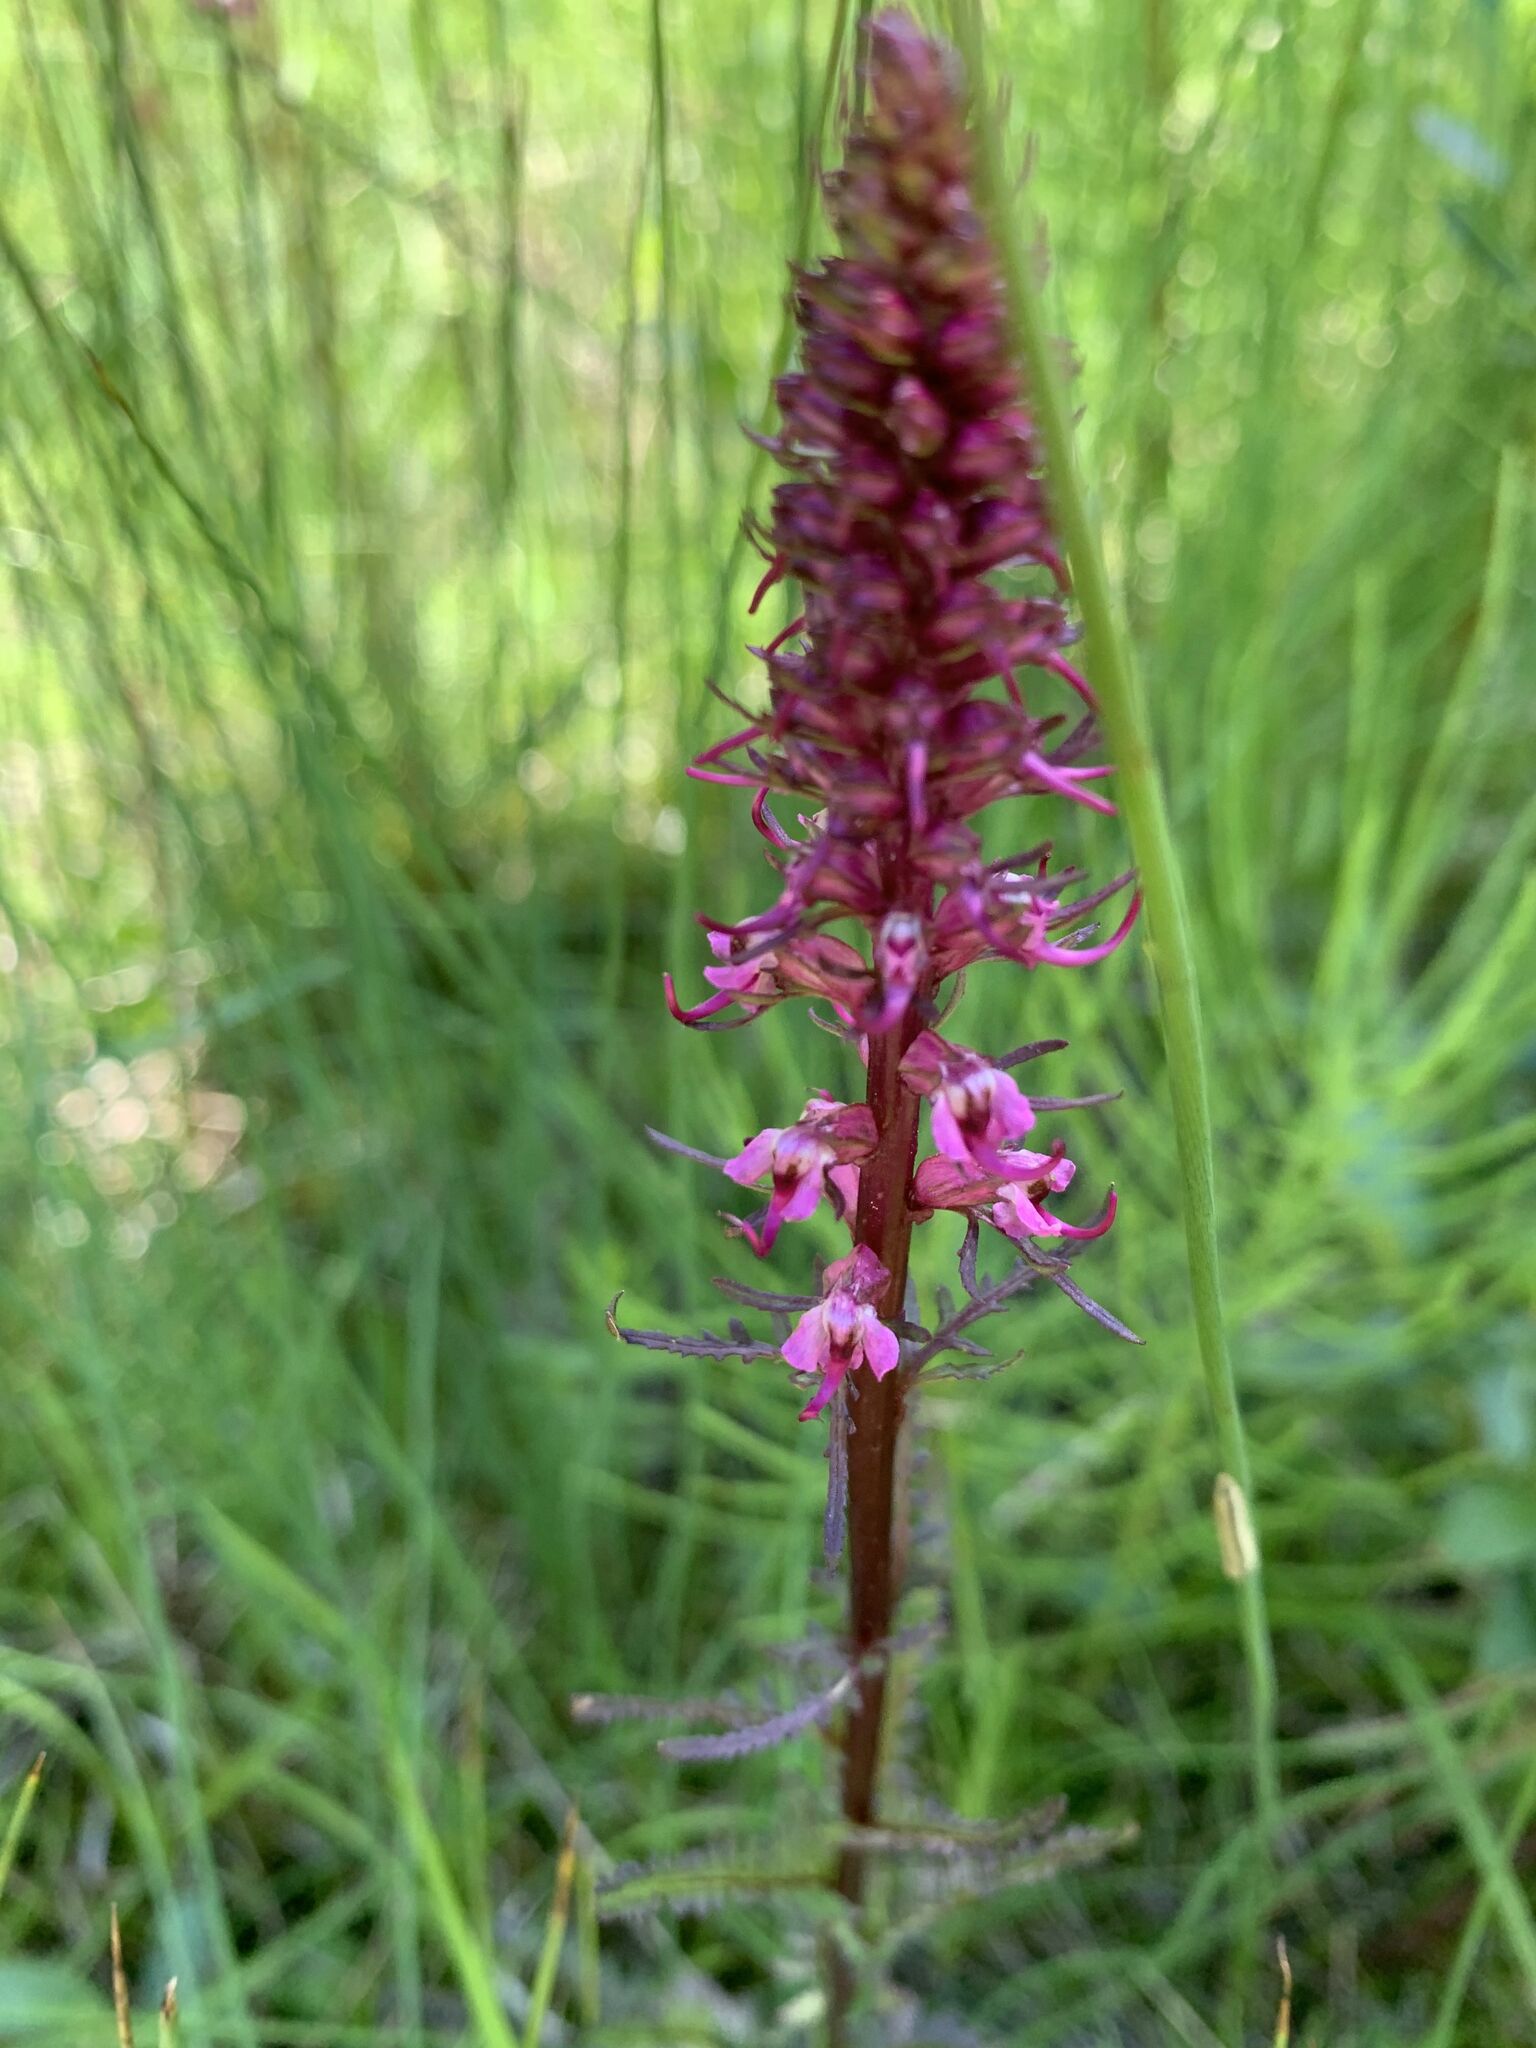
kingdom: Plantae
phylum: Tracheophyta
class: Magnoliopsida
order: Lamiales
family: Orobanchaceae
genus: Pedicularis
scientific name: Pedicularis groenlandica
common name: Elephant's-head
